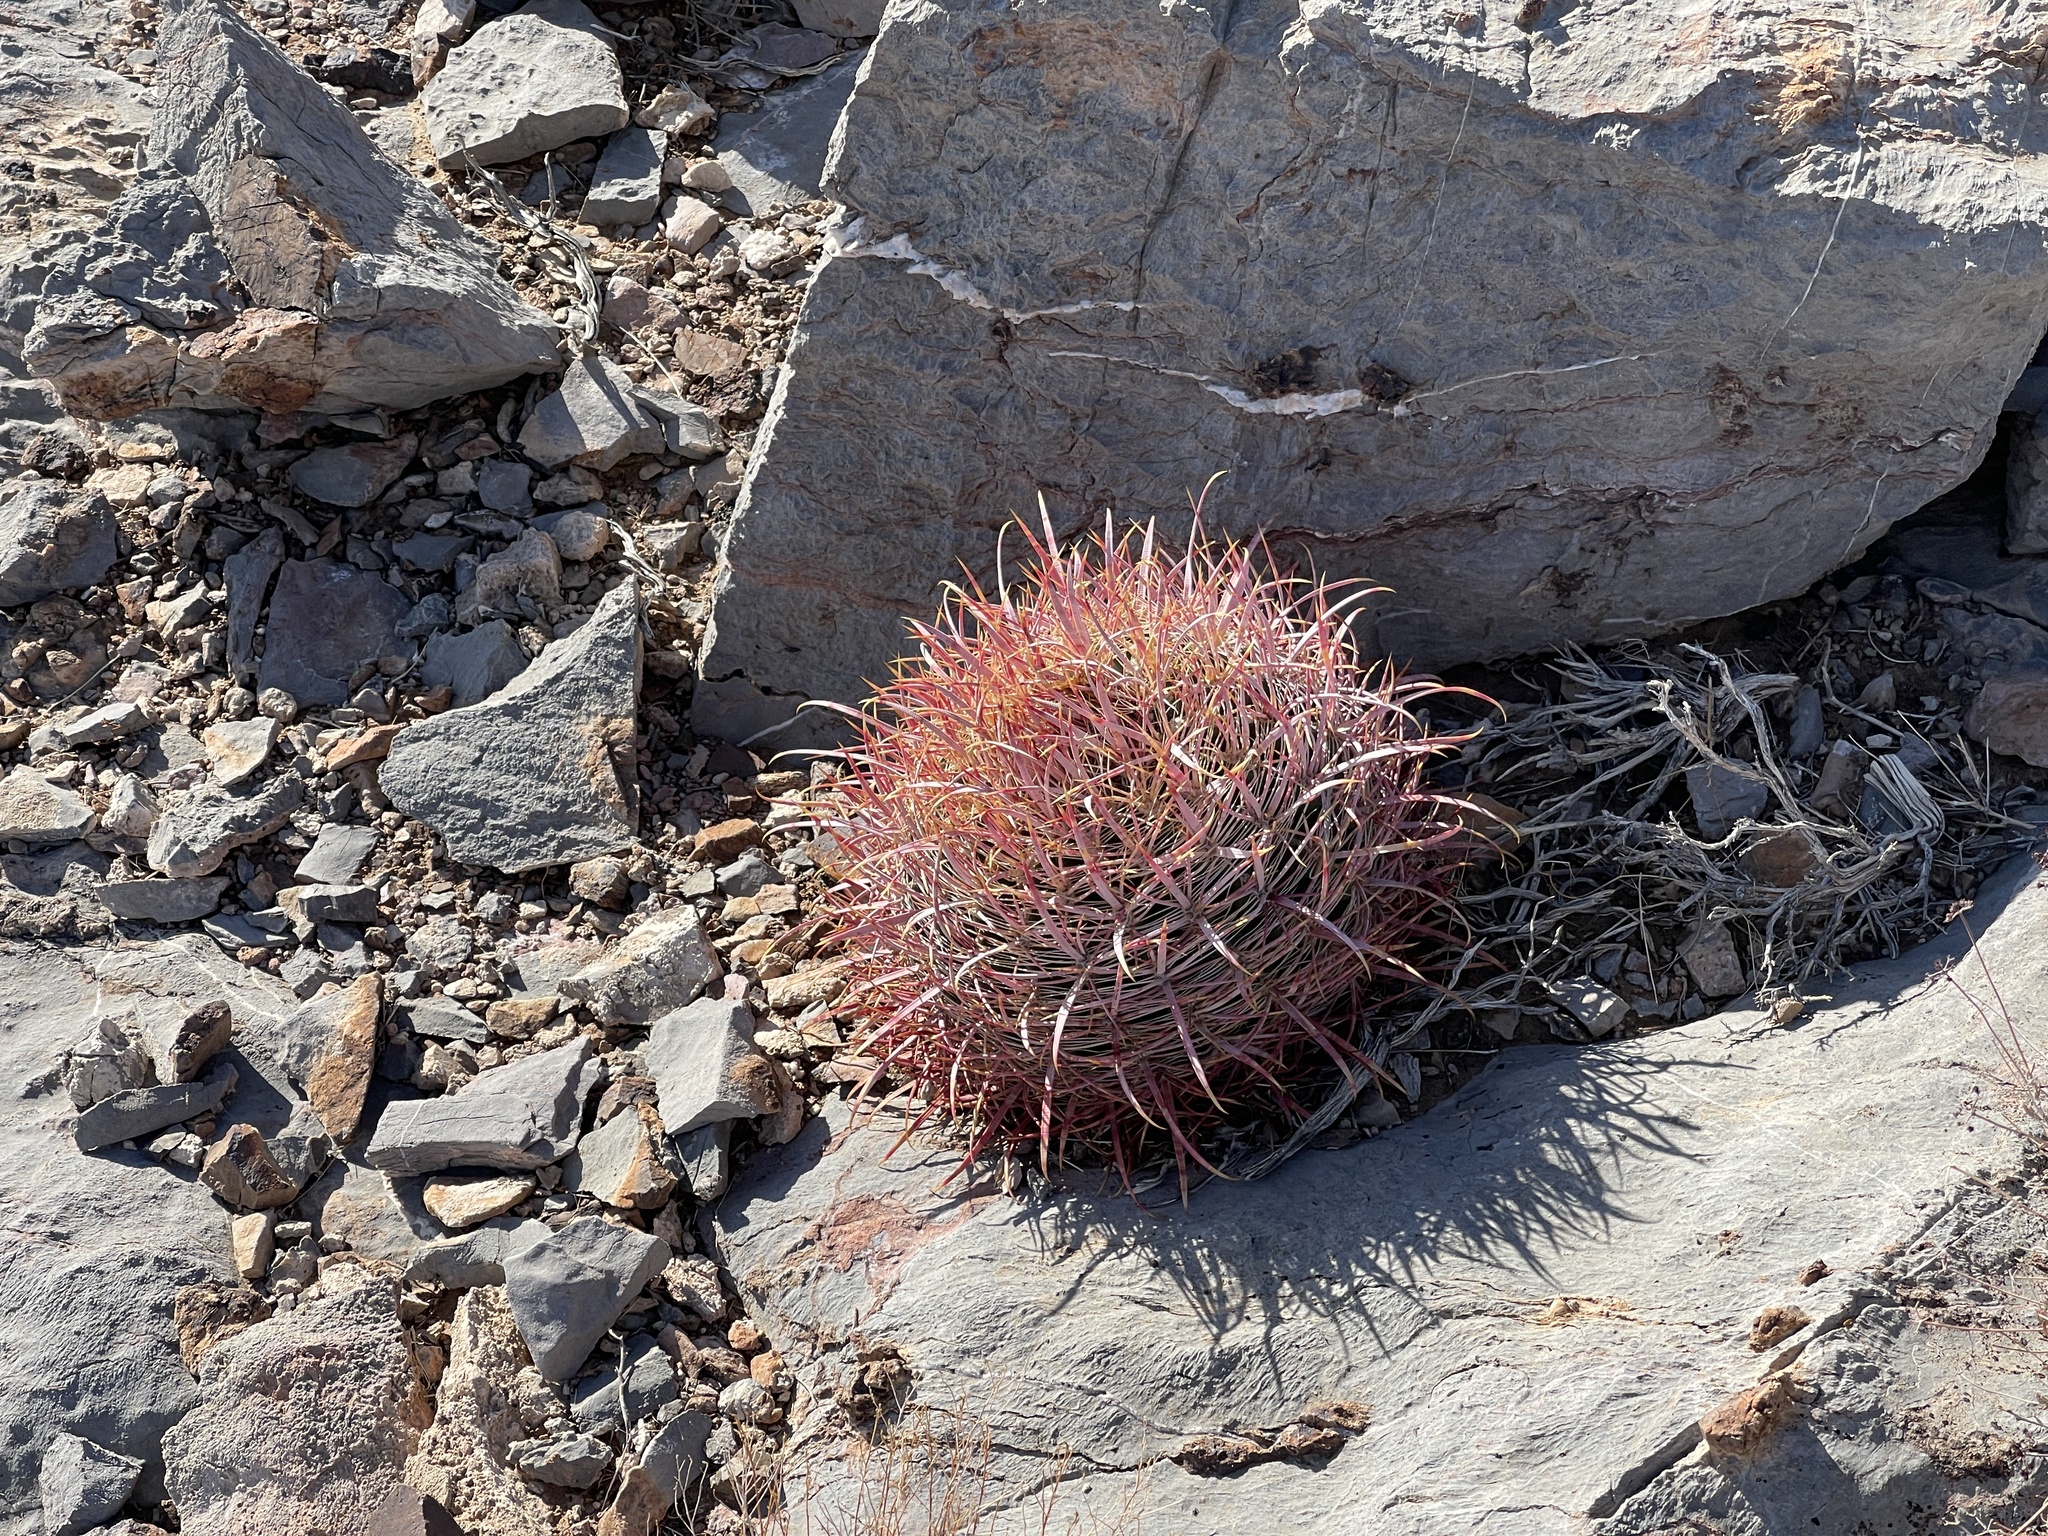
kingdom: Plantae
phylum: Tracheophyta
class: Magnoliopsida
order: Caryophyllales
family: Cactaceae
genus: Ferocactus
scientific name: Ferocactus cylindraceus
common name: California barrel cactus
